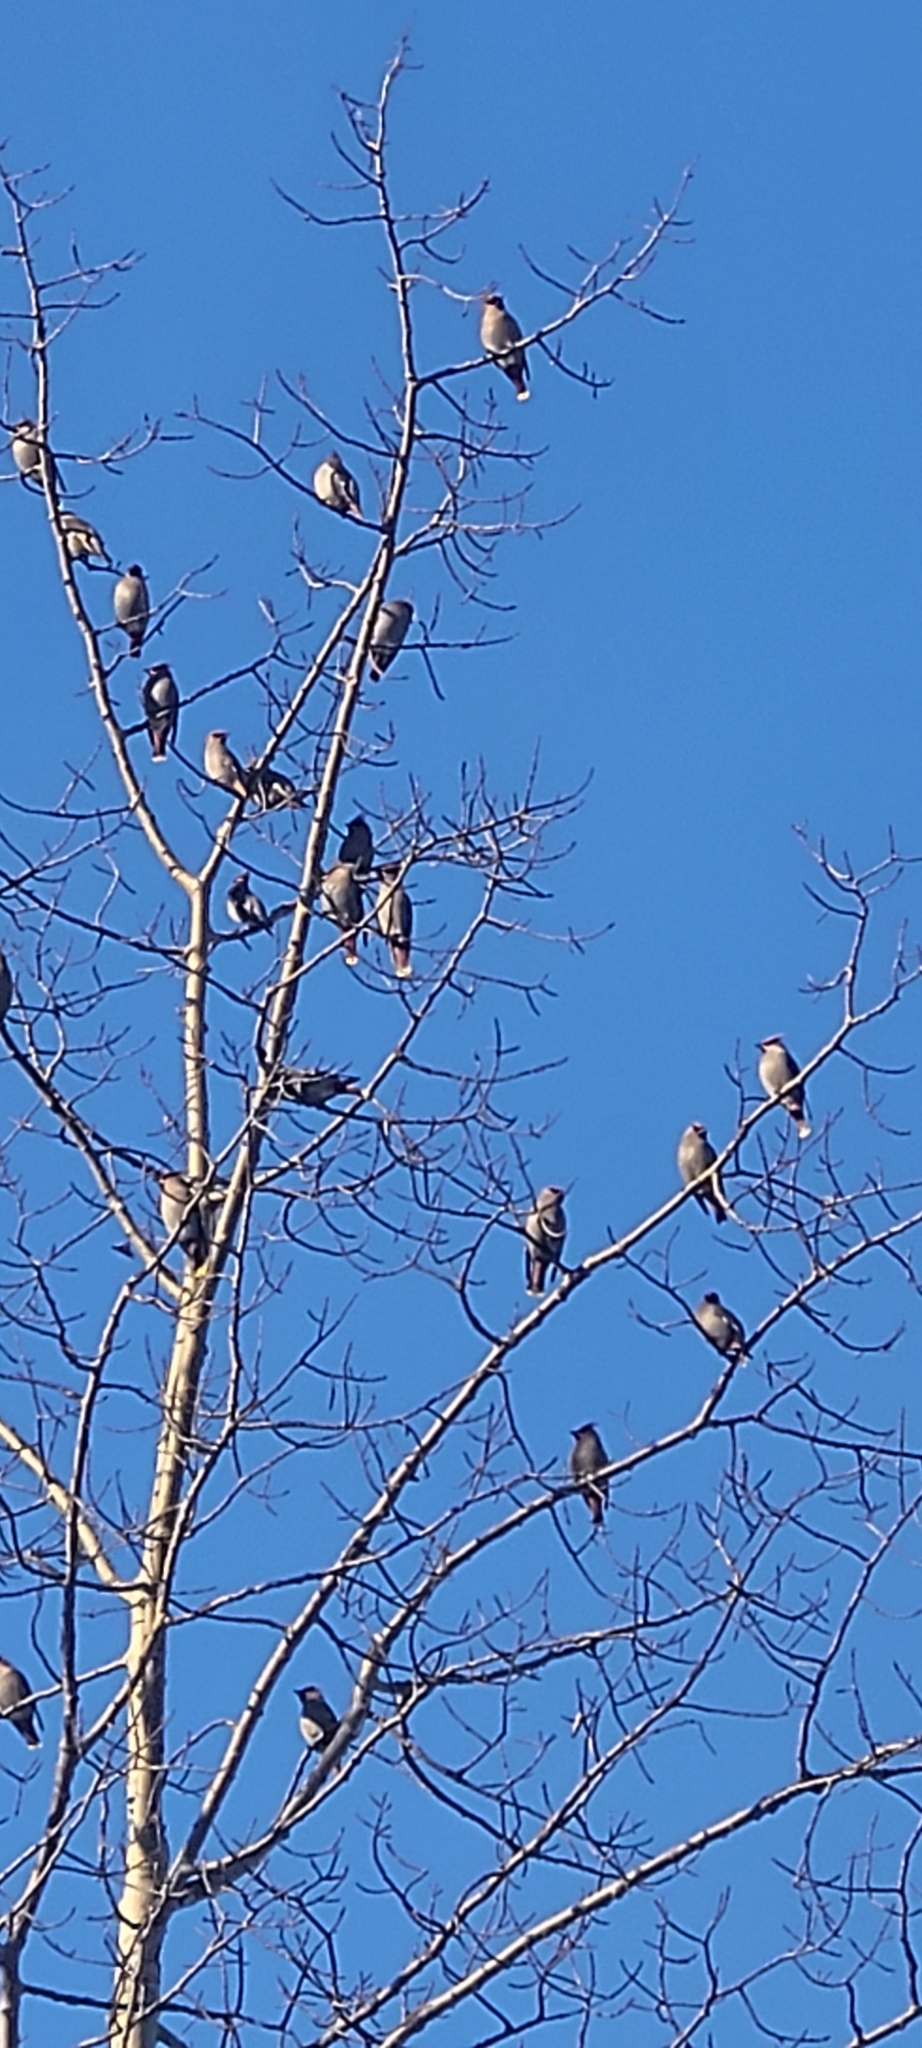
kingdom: Animalia
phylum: Chordata
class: Aves
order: Passeriformes
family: Bombycillidae
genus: Bombycilla
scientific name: Bombycilla garrulus
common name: Bohemian waxwing
